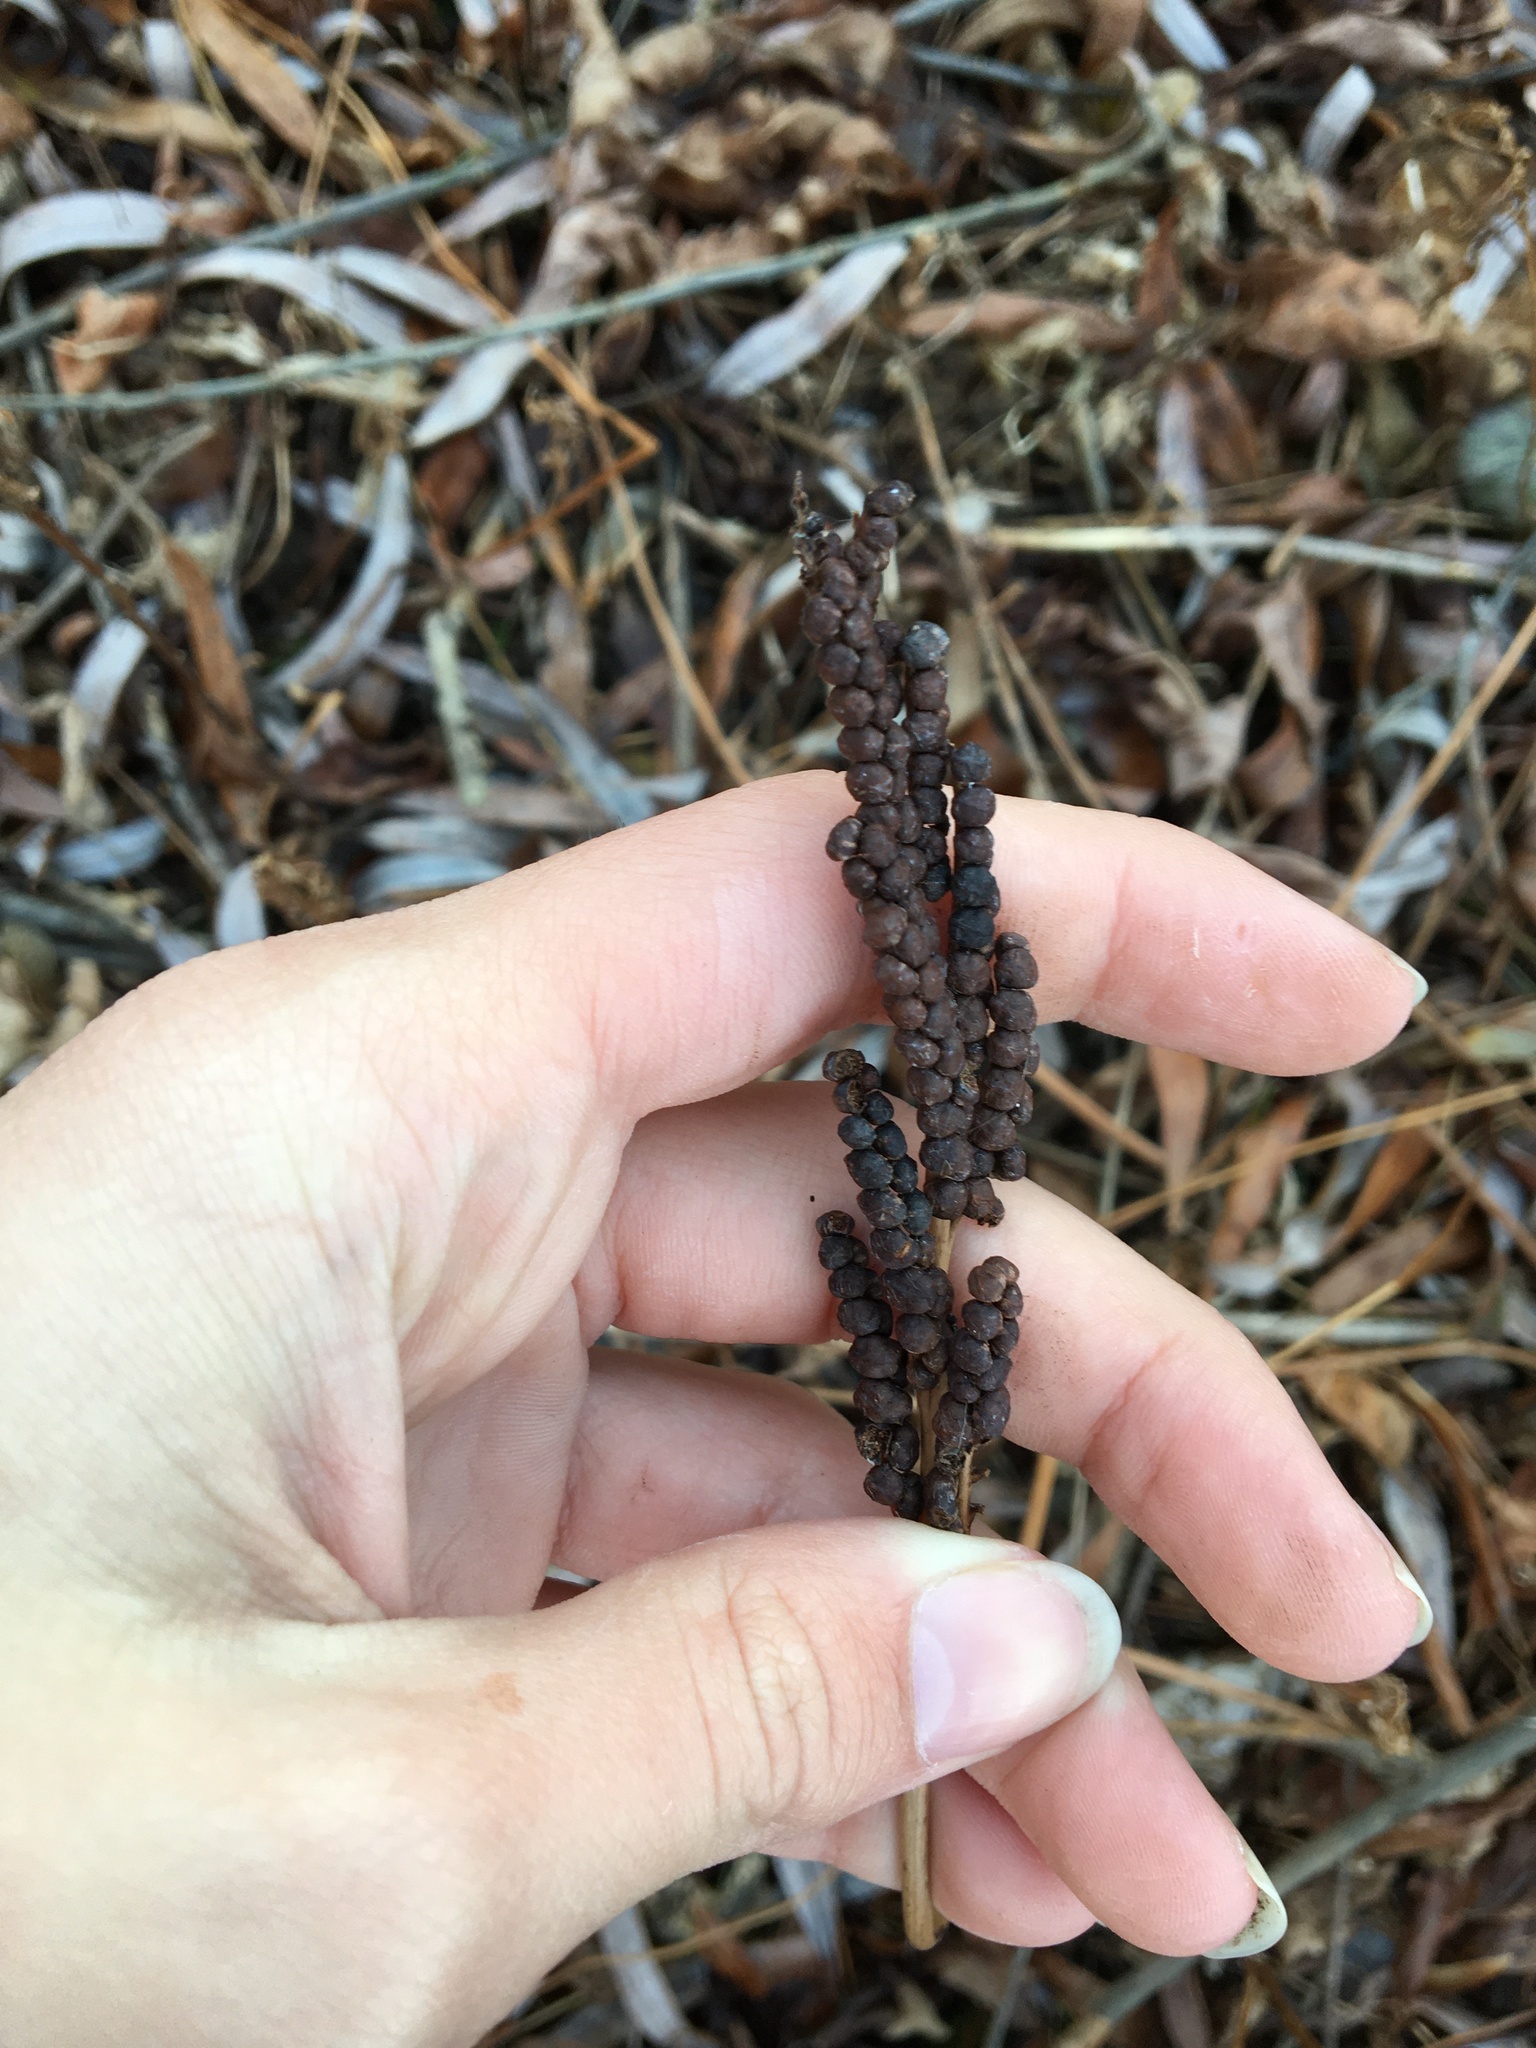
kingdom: Plantae
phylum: Tracheophyta
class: Polypodiopsida
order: Polypodiales
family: Onocleaceae
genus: Onoclea
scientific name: Onoclea sensibilis
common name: Sensitive fern
